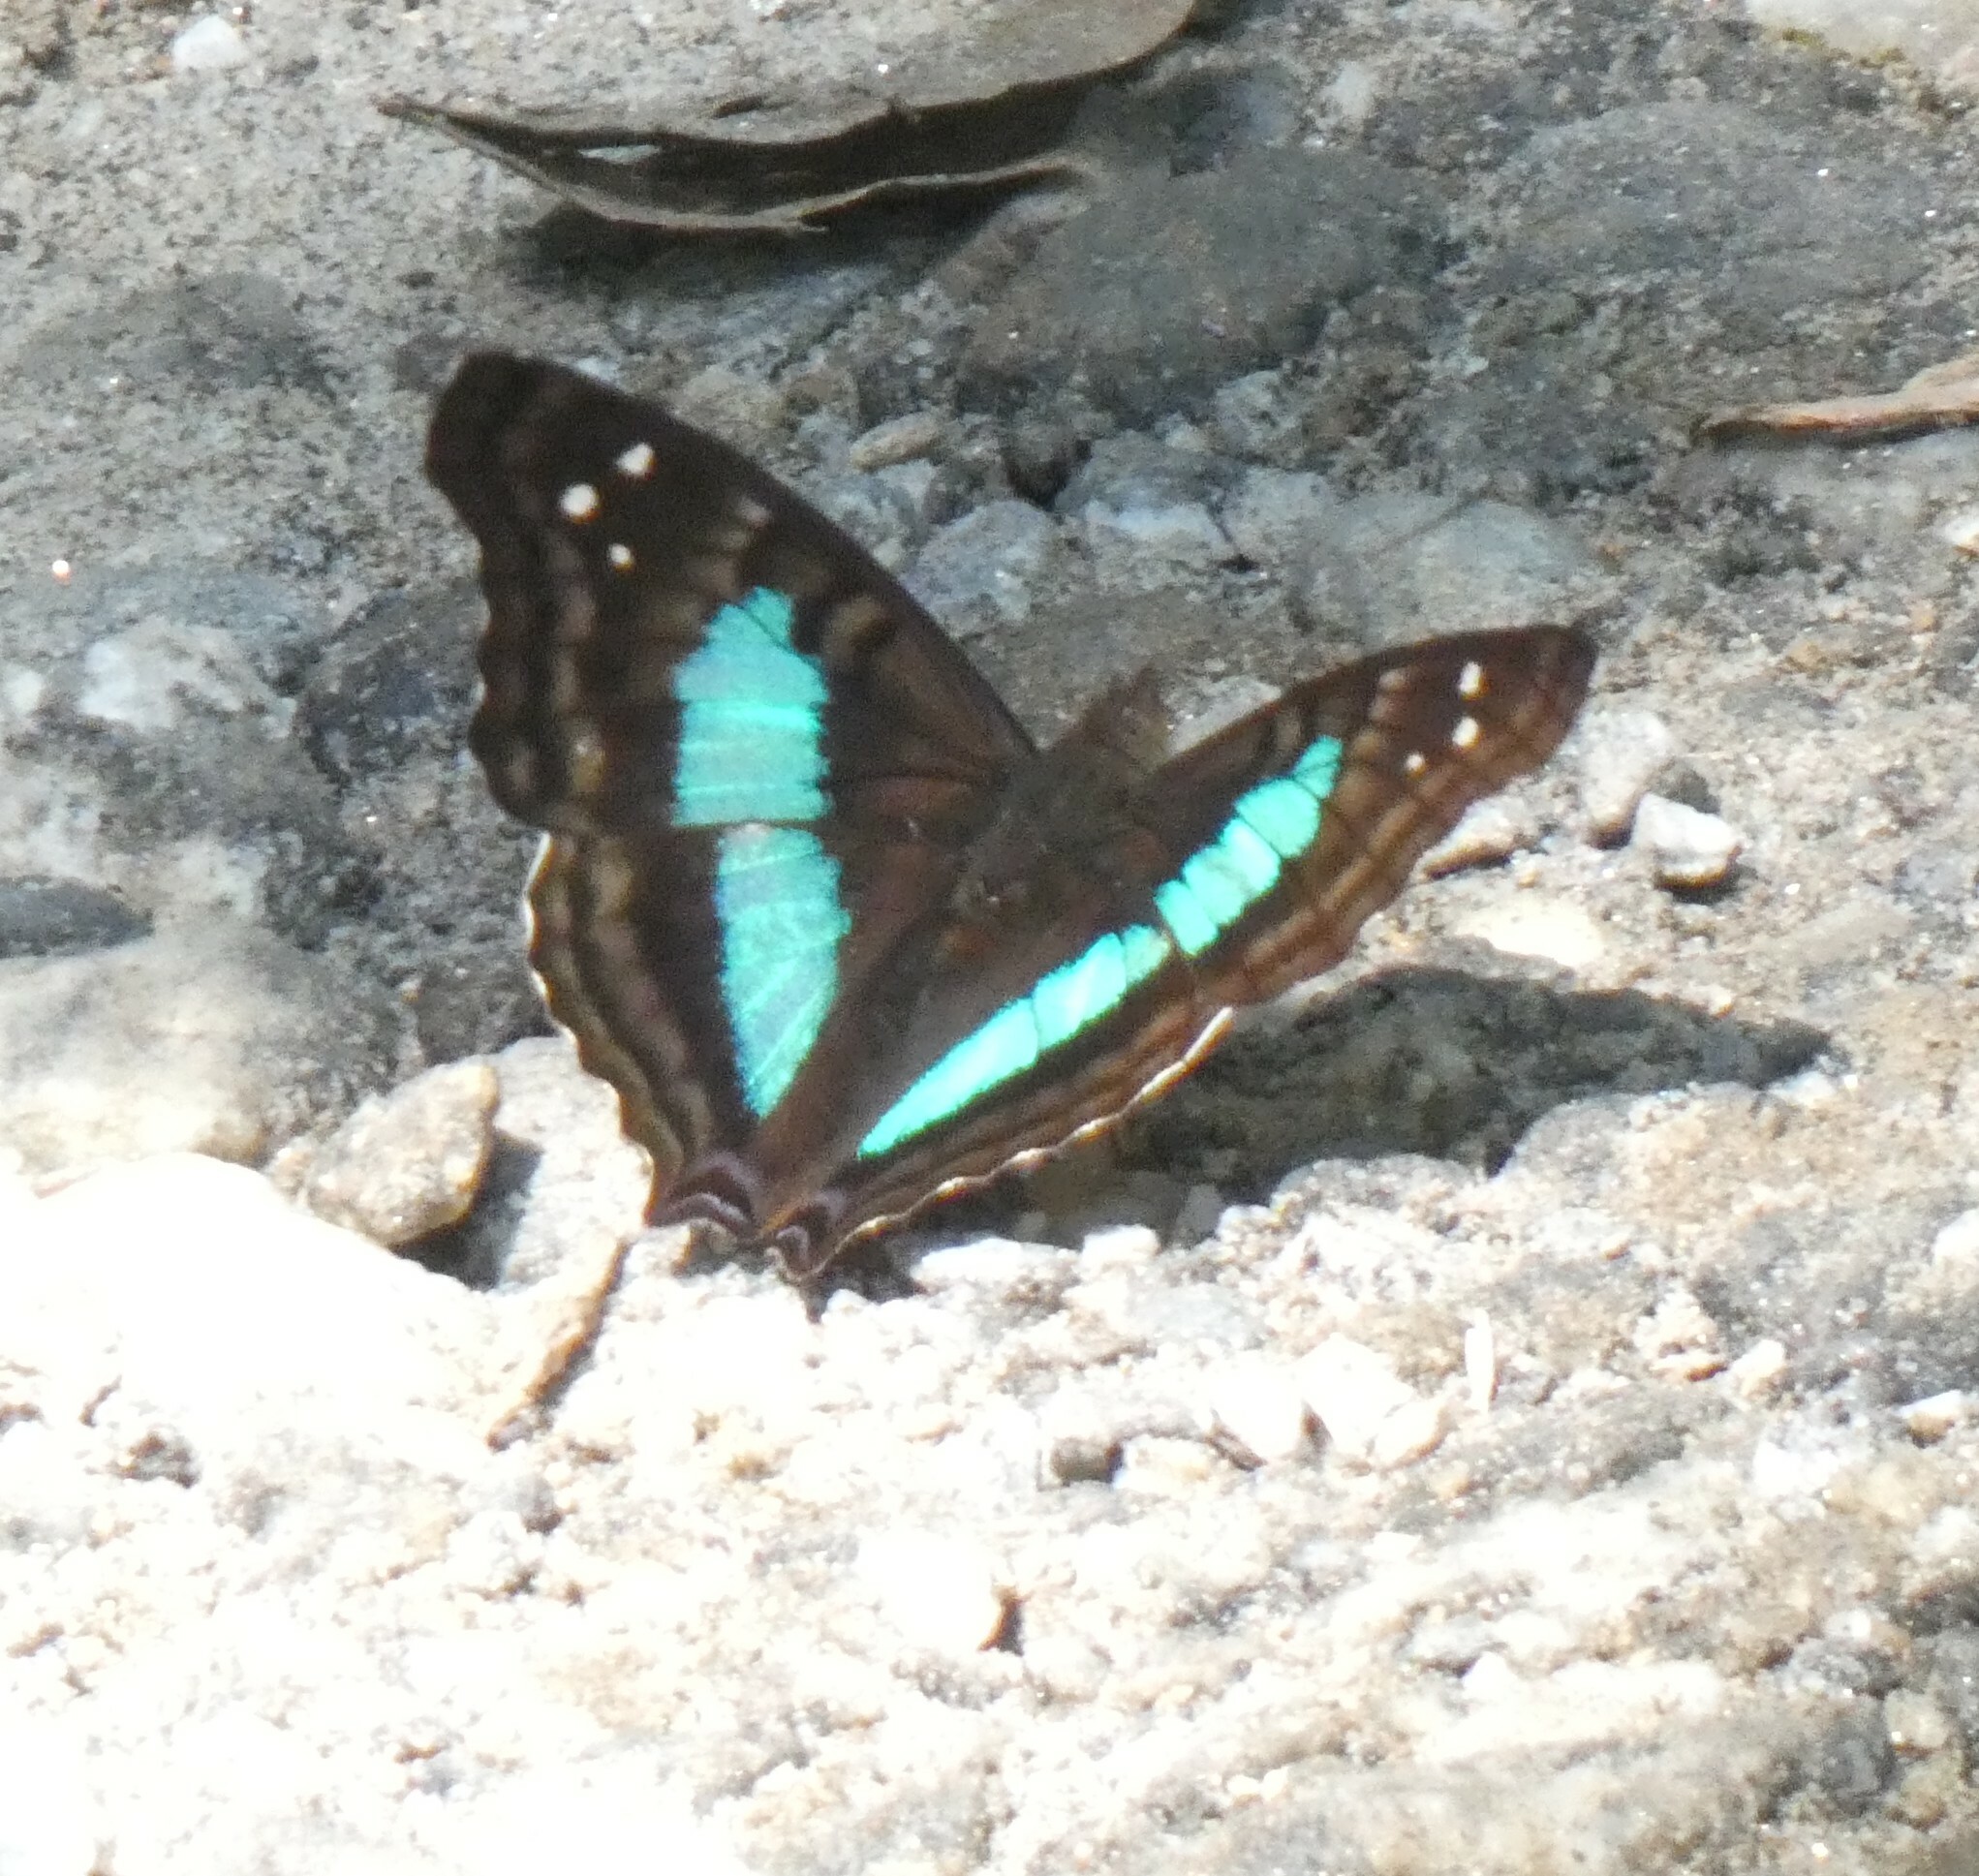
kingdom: Animalia
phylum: Arthropoda
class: Insecta
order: Lepidoptera
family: Nymphalidae
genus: Doxocopa
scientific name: Doxocopa laurentia
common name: Turquoise emperor
